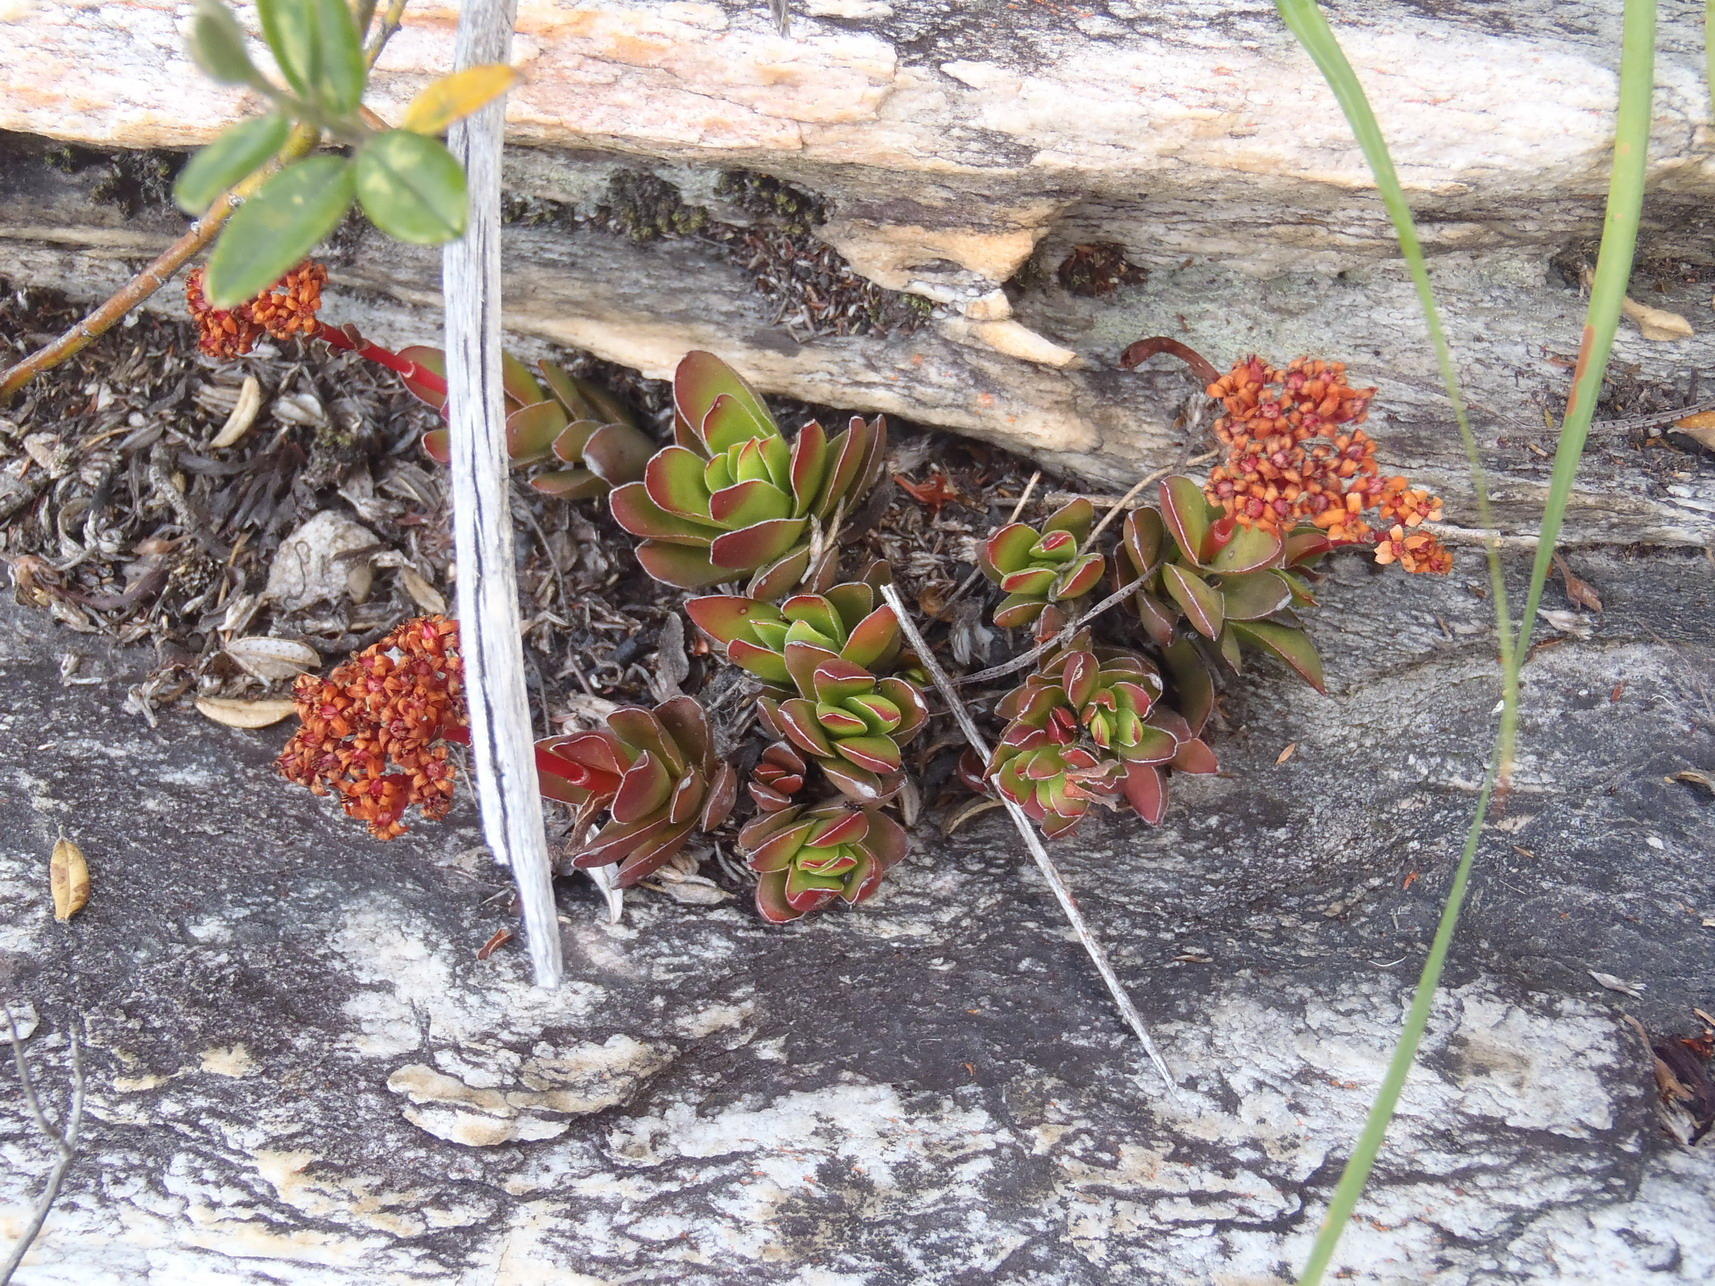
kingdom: Plantae
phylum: Tracheophyta
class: Magnoliopsida
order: Saxifragales
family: Crassulaceae
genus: Crassula
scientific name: Crassula rubricaulis
